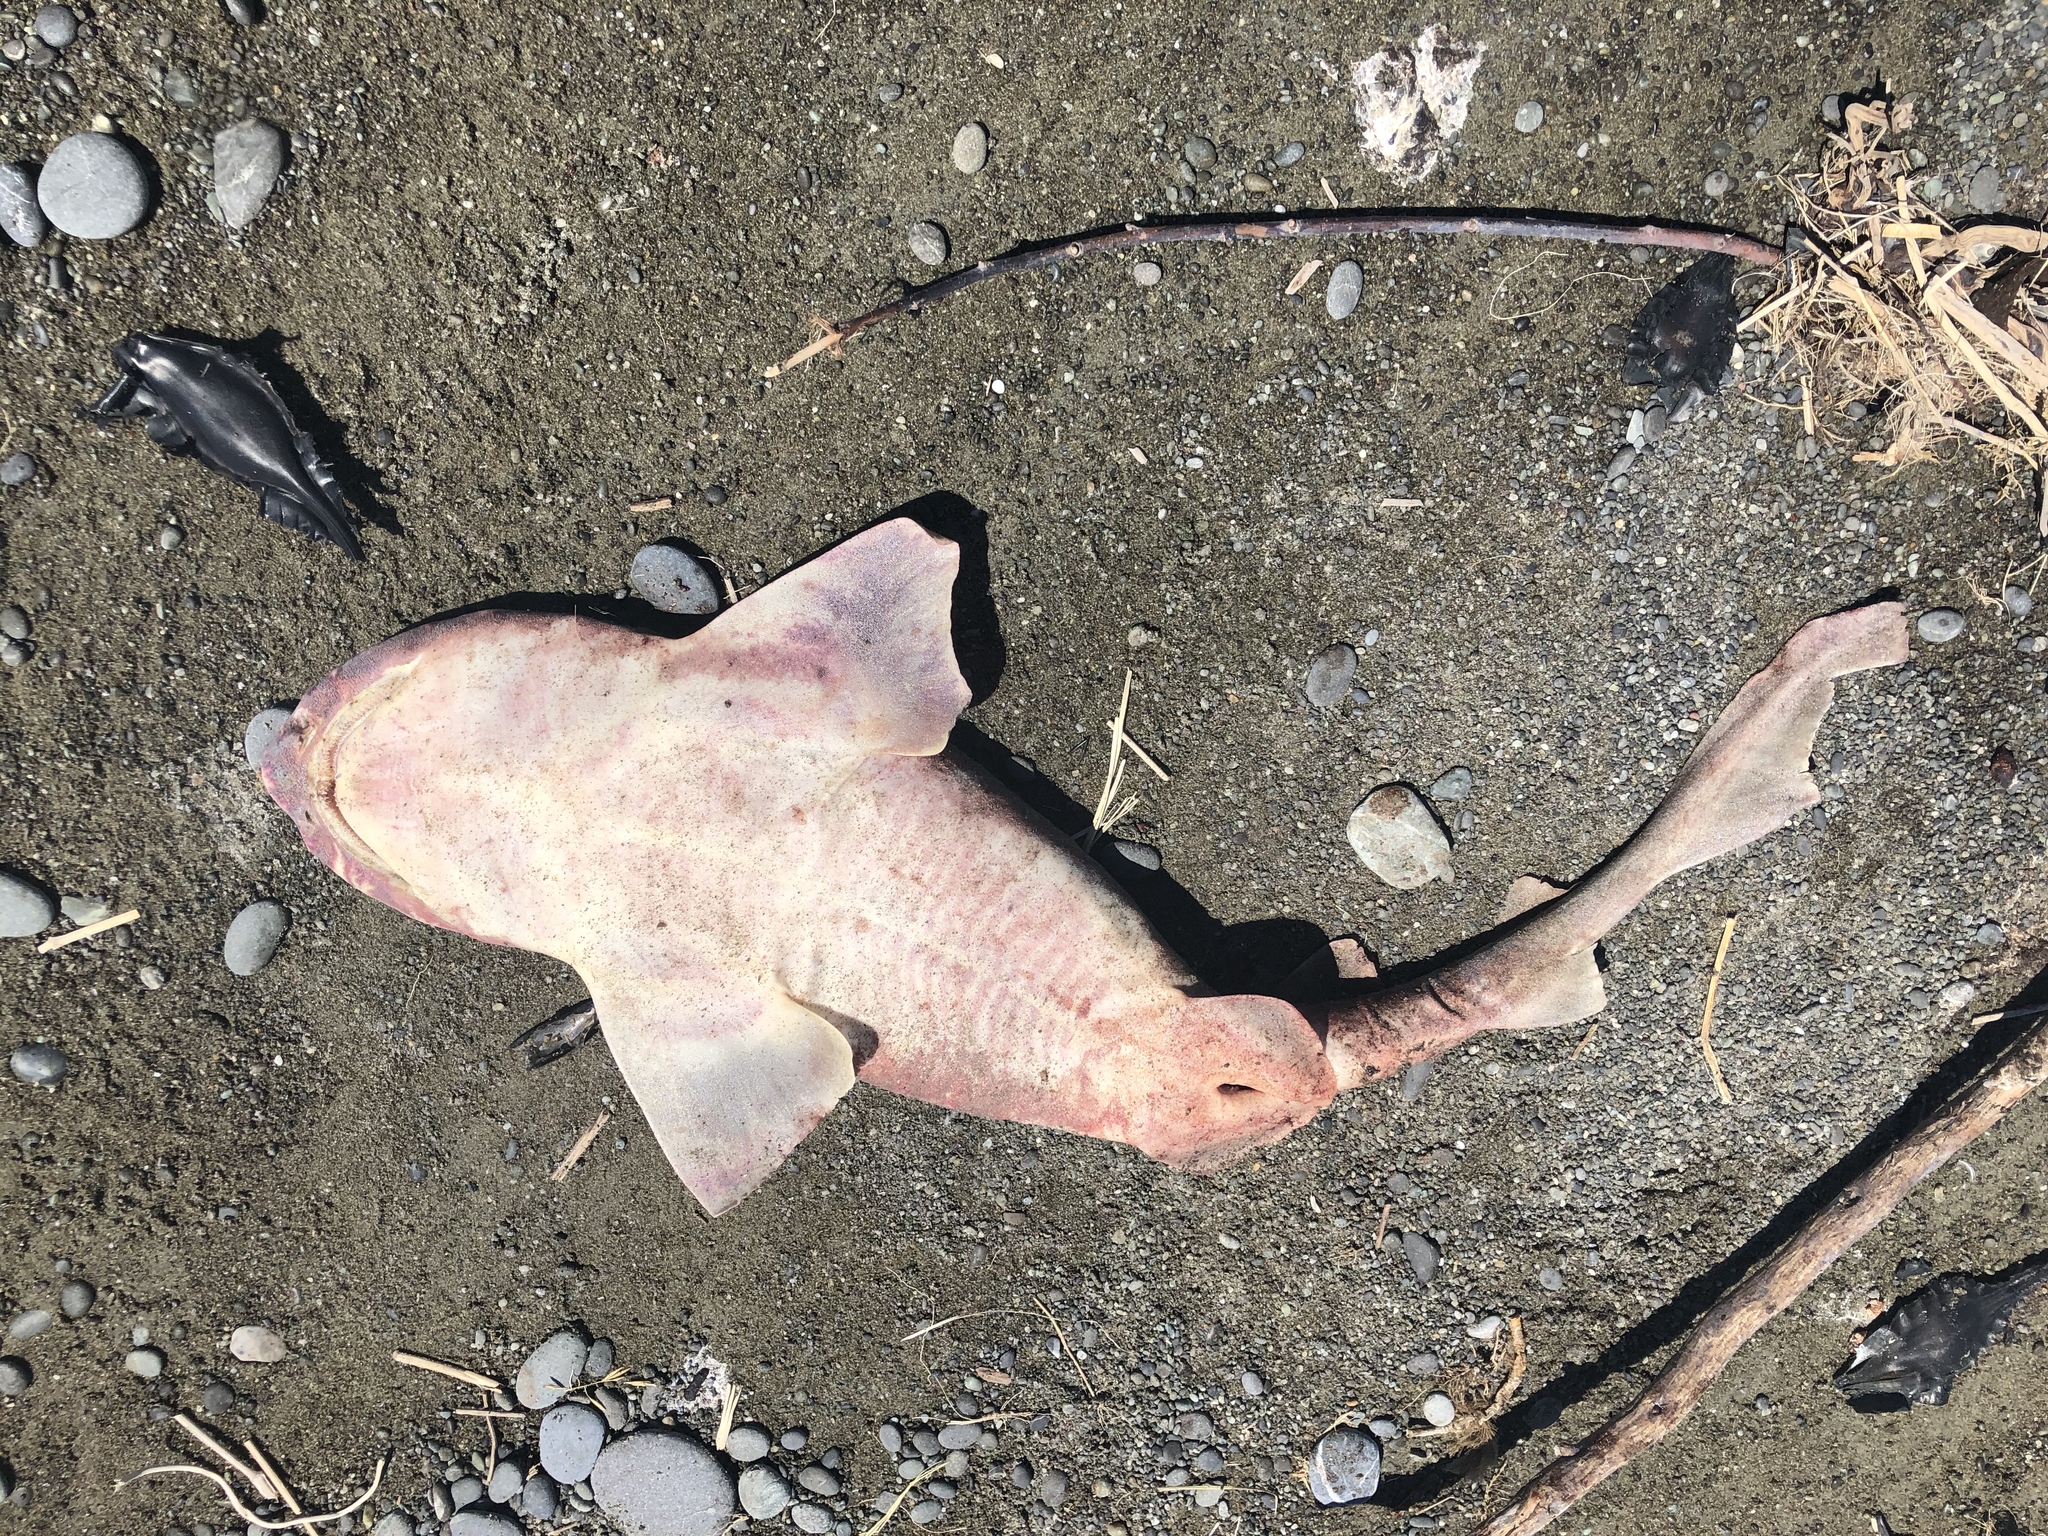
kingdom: Animalia
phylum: Chordata
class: Elasmobranchii
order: Carcharhiniformes
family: Scyliorhinidae
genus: Cephaloscyllium
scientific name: Cephaloscyllium isabellum
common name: Carpet shark
